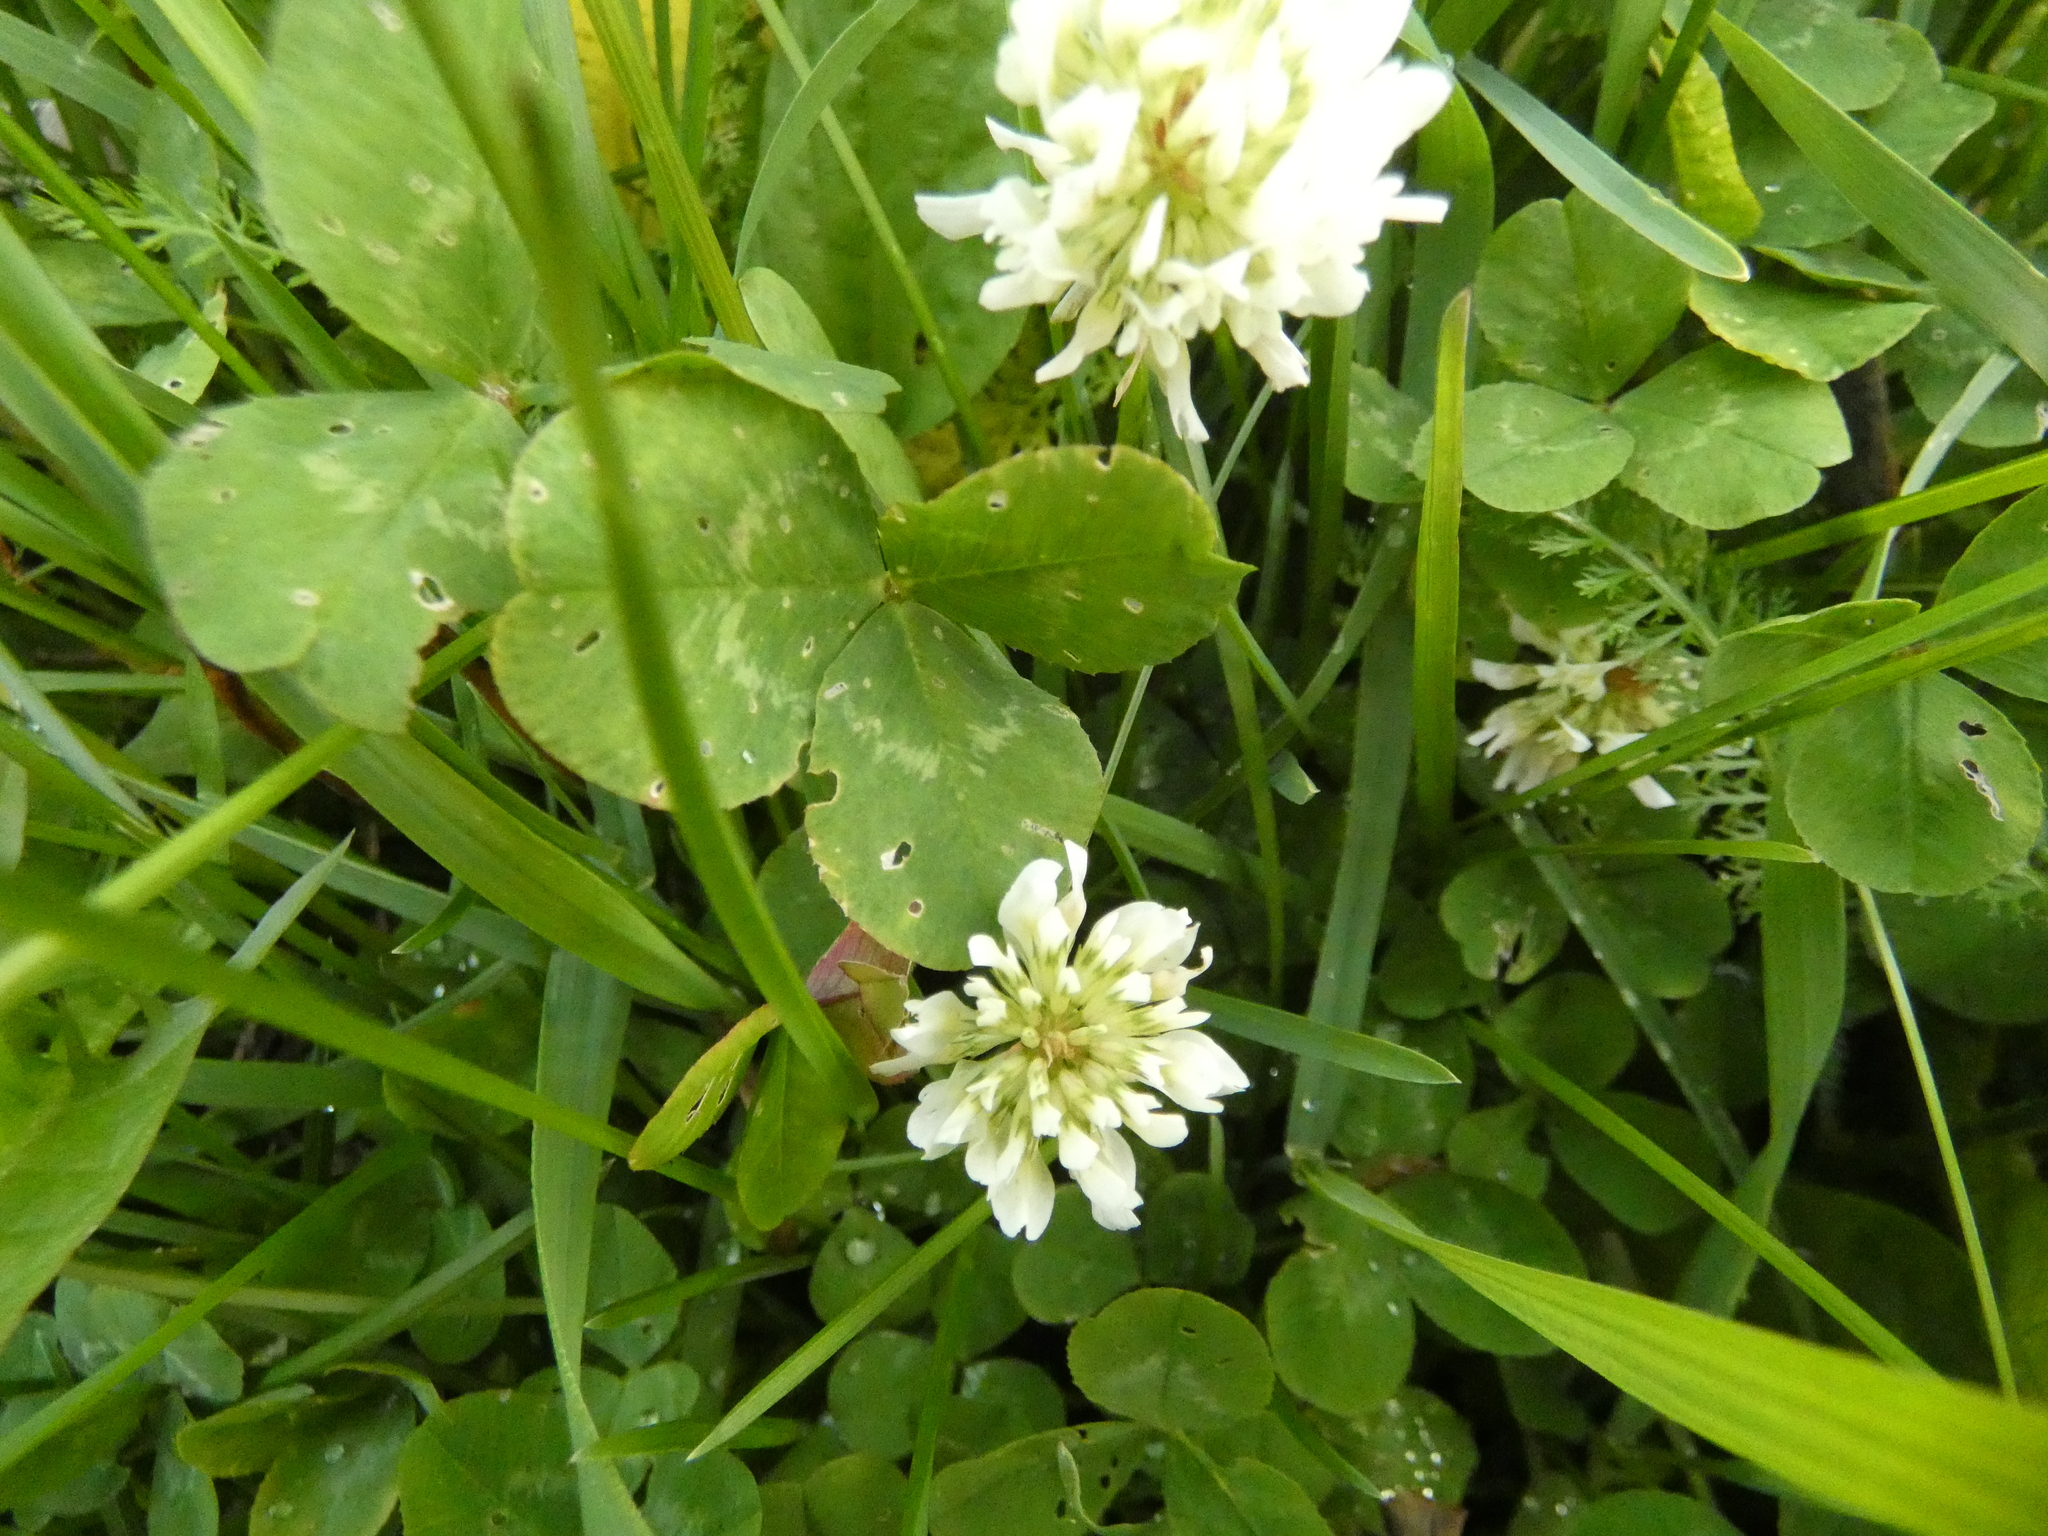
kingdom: Plantae
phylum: Tracheophyta
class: Magnoliopsida
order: Fabales
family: Fabaceae
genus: Trifolium
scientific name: Trifolium repens
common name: White clover
